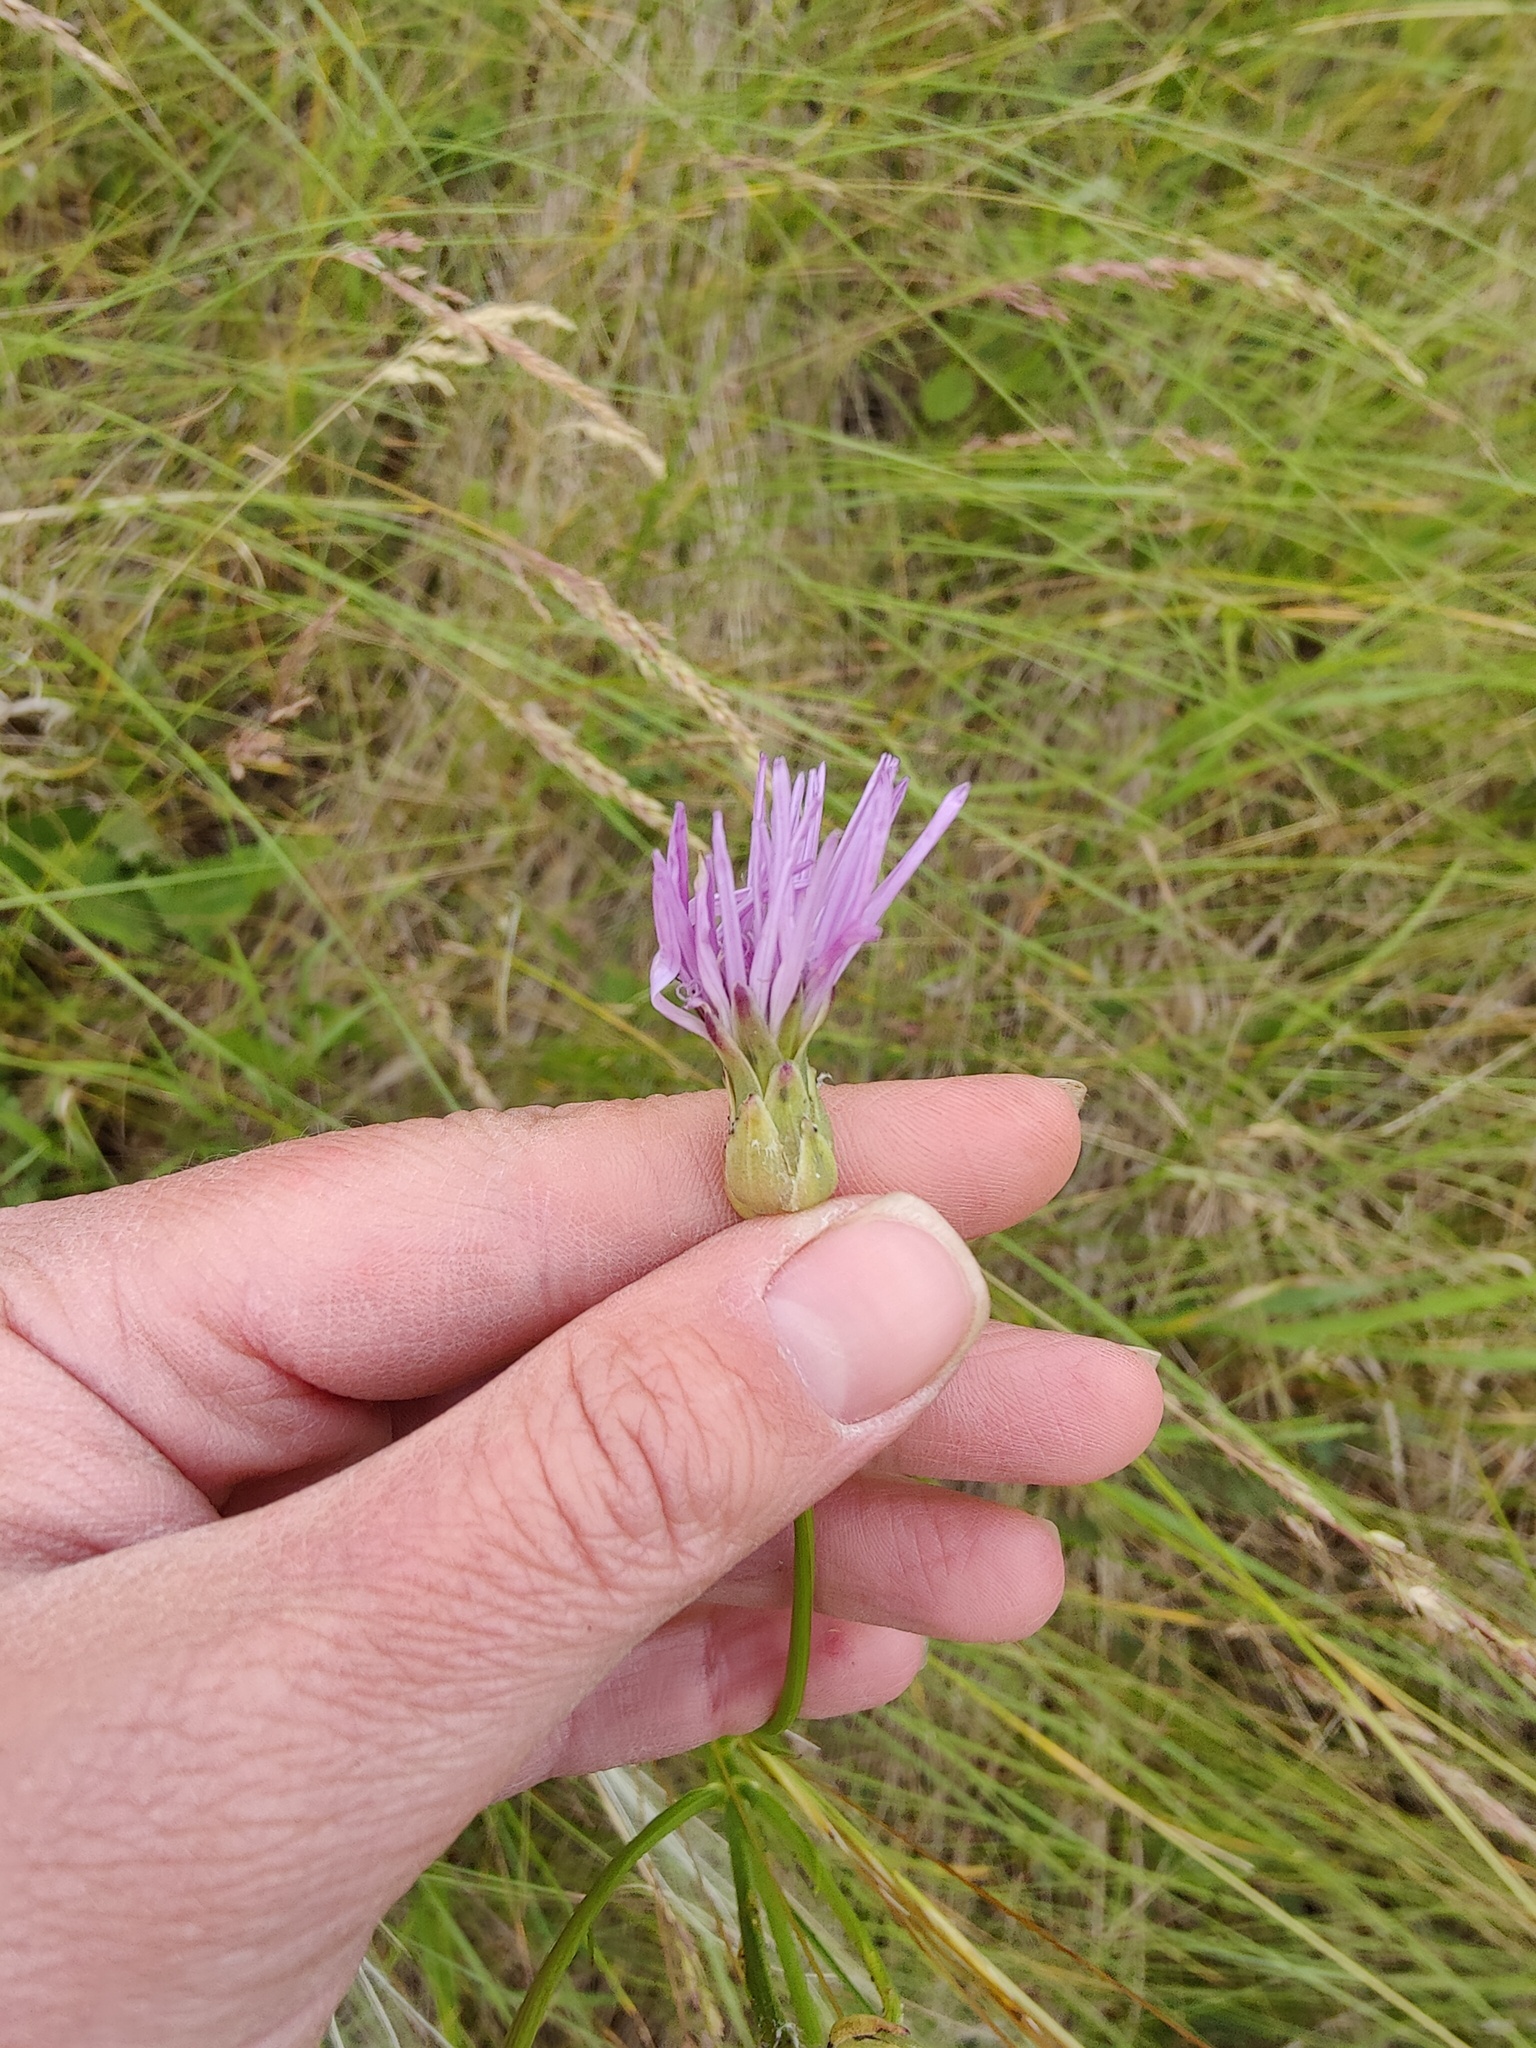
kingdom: Plantae
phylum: Tracheophyta
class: Magnoliopsida
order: Asterales
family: Asteraceae
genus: Scorzonera
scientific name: Scorzonera purpurea
